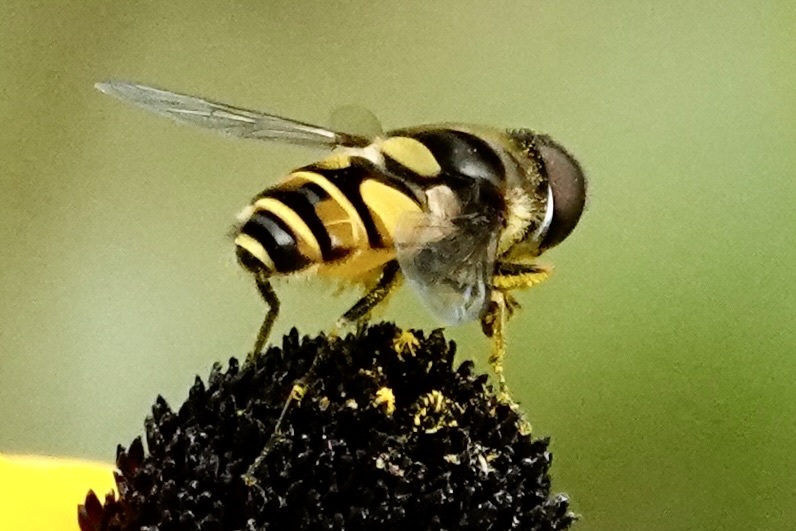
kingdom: Animalia
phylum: Arthropoda
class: Insecta
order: Diptera
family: Syrphidae
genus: Eristalis
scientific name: Eristalis transversa
